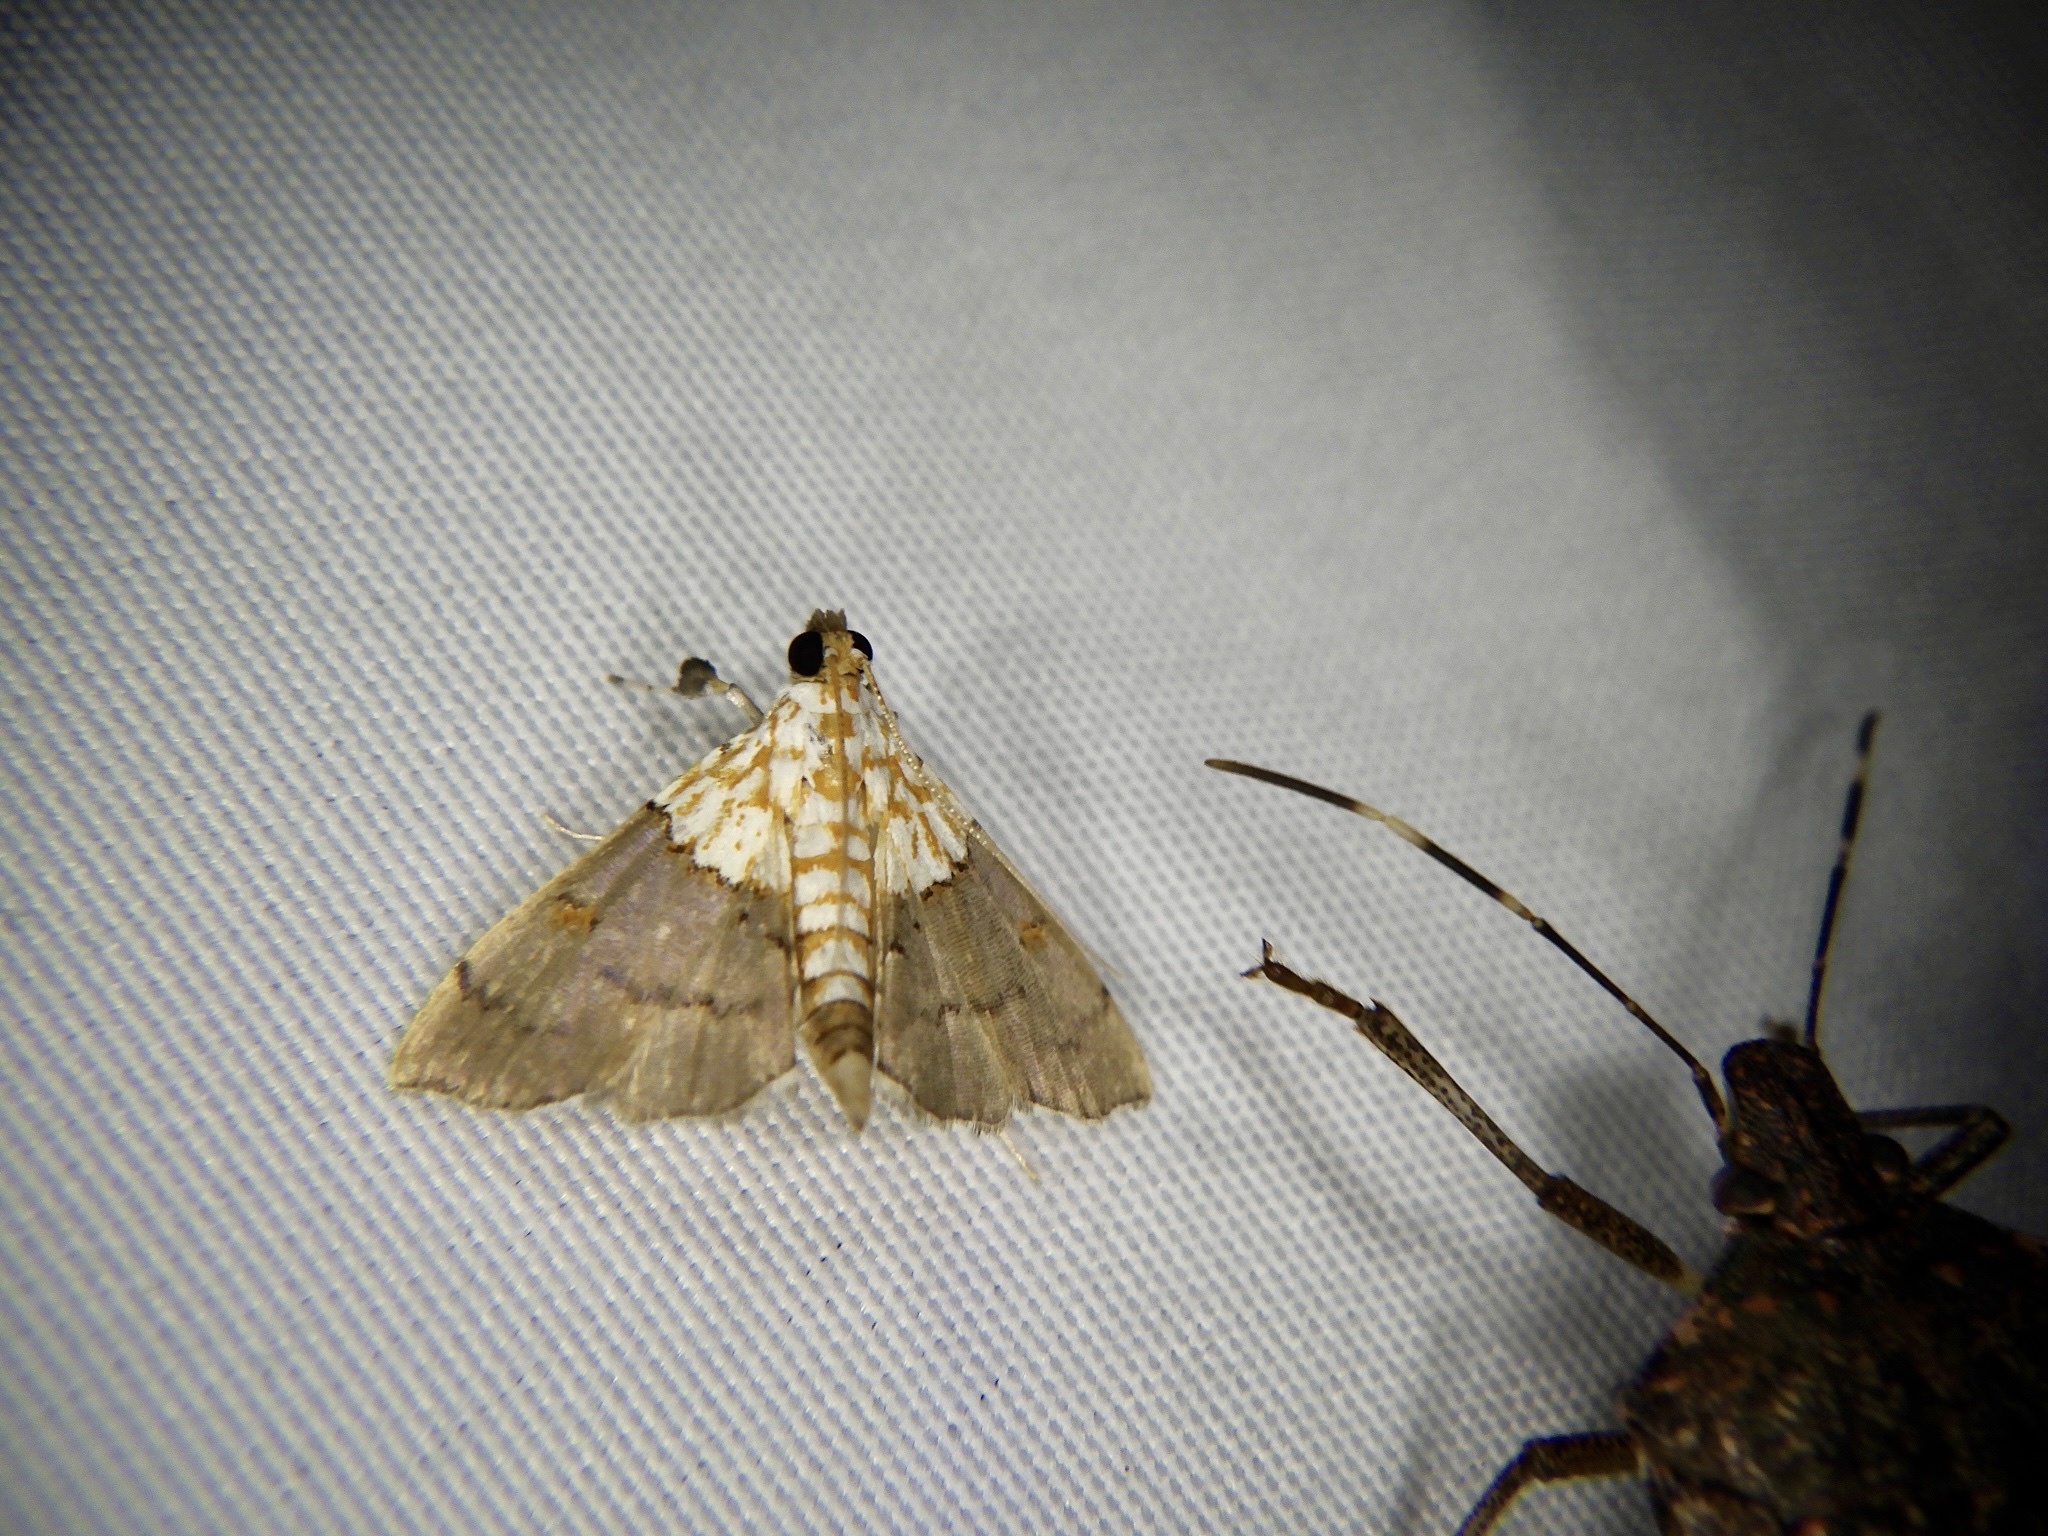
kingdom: Animalia
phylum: Arthropoda
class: Insecta
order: Lepidoptera
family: Crambidae
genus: Agrotera
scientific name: Agrotera nemoralis
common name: Beautiful pearl
